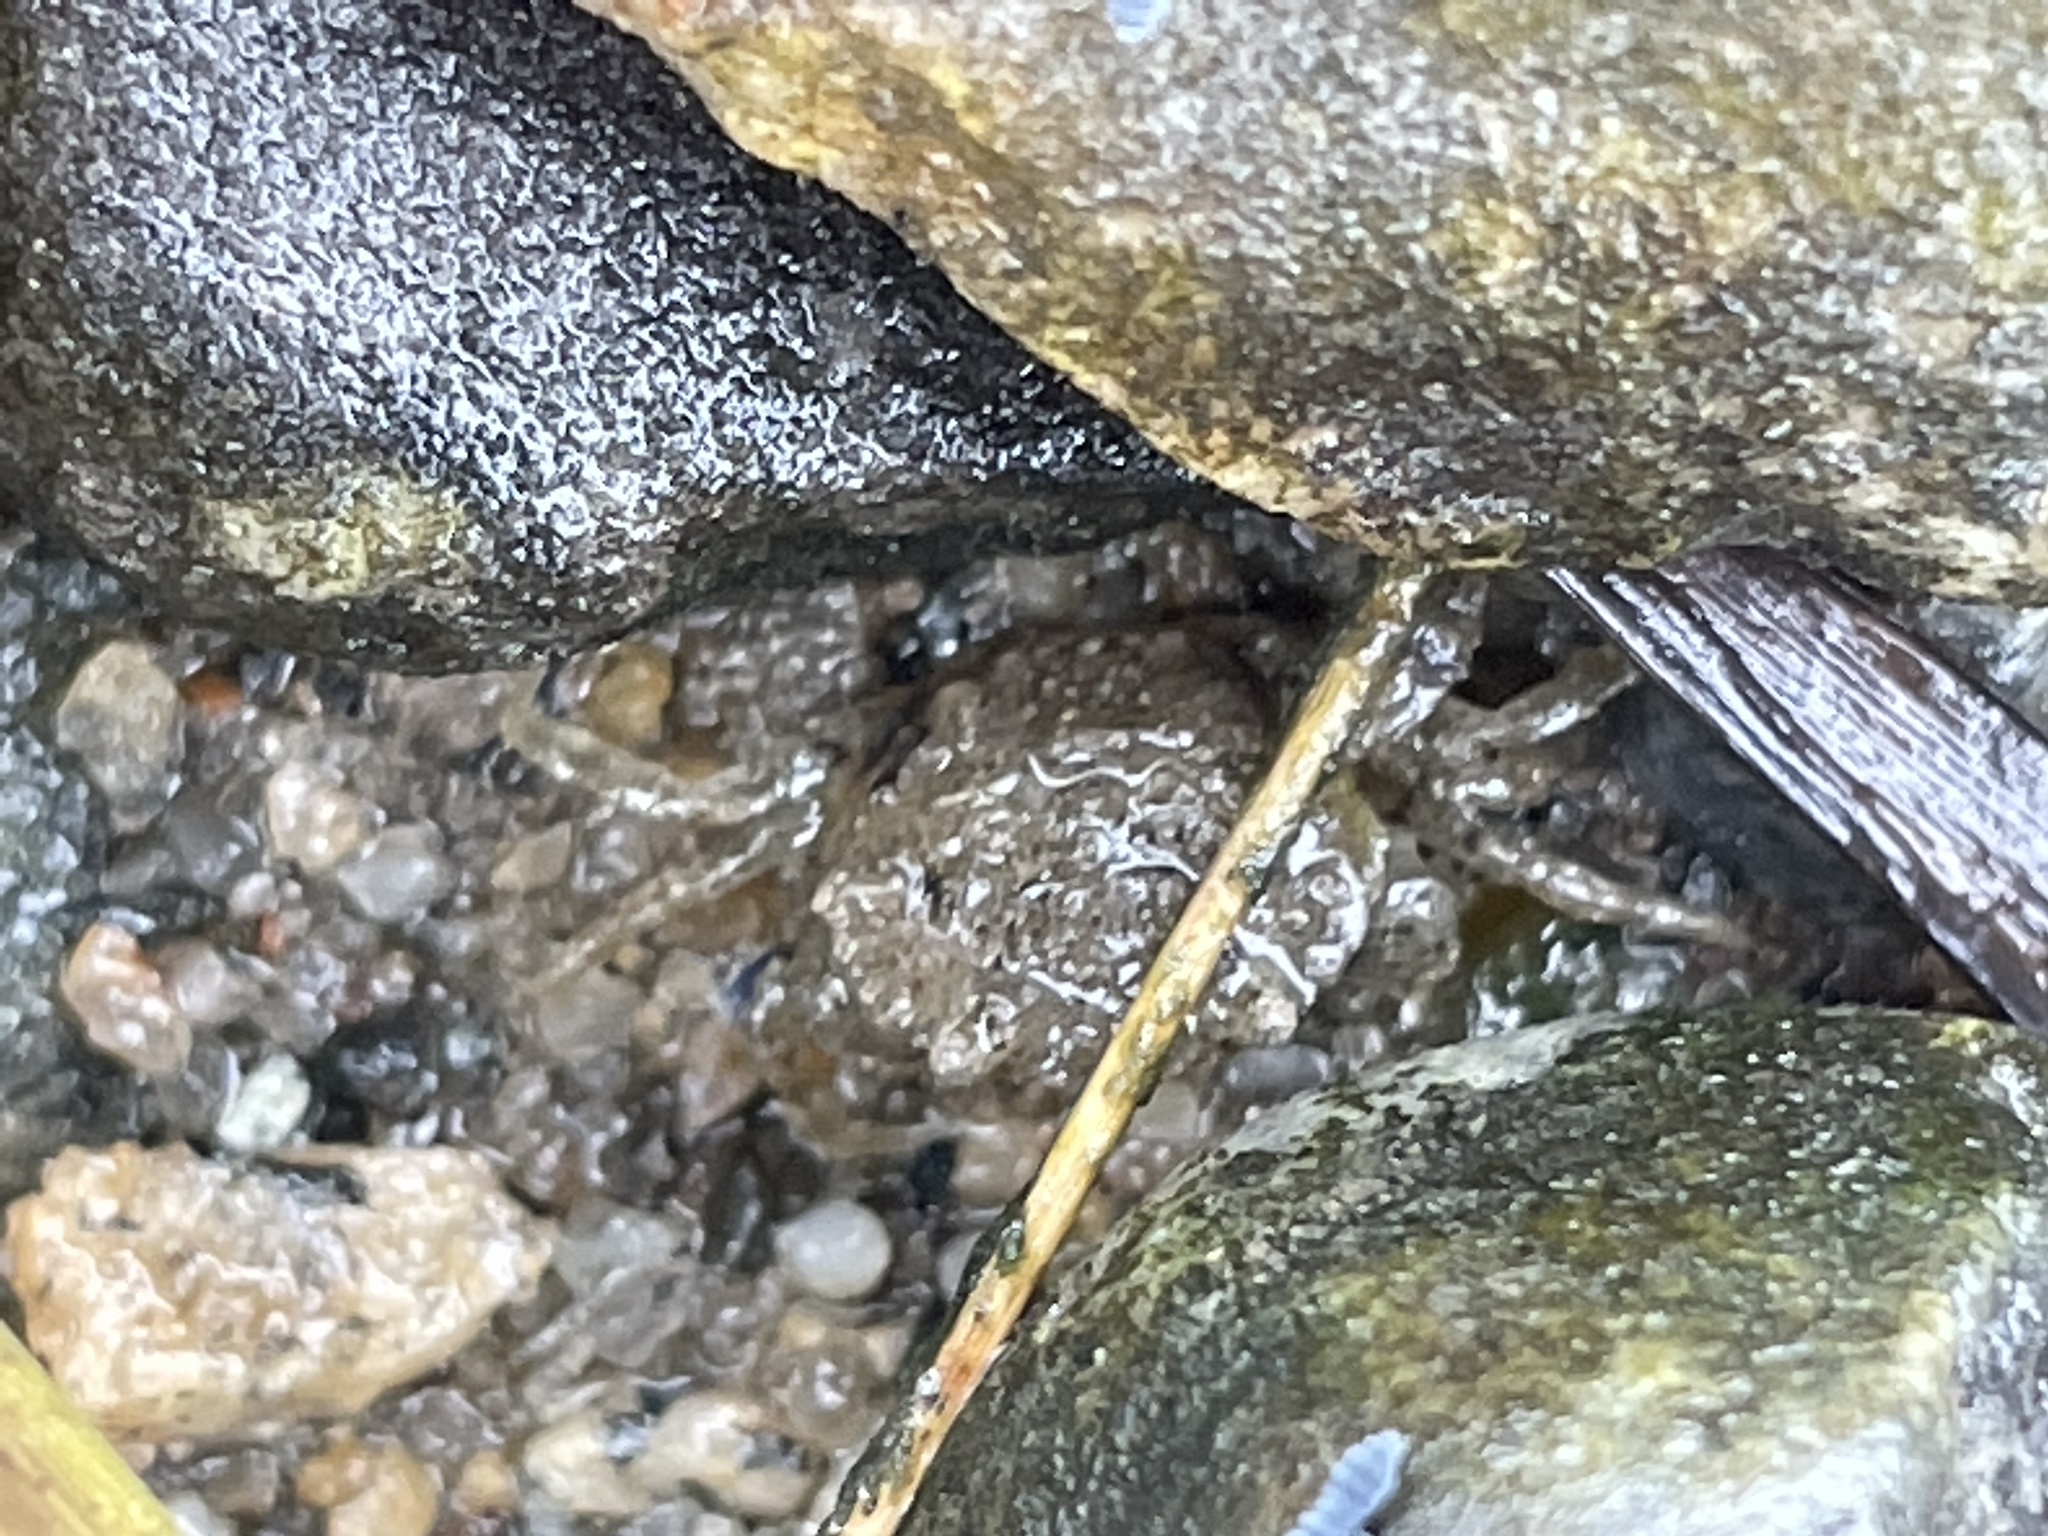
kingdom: Animalia
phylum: Arthropoda
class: Malacostraca
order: Decapoda
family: Carcinidae
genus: Carcinus
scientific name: Carcinus maenas
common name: European green crab
